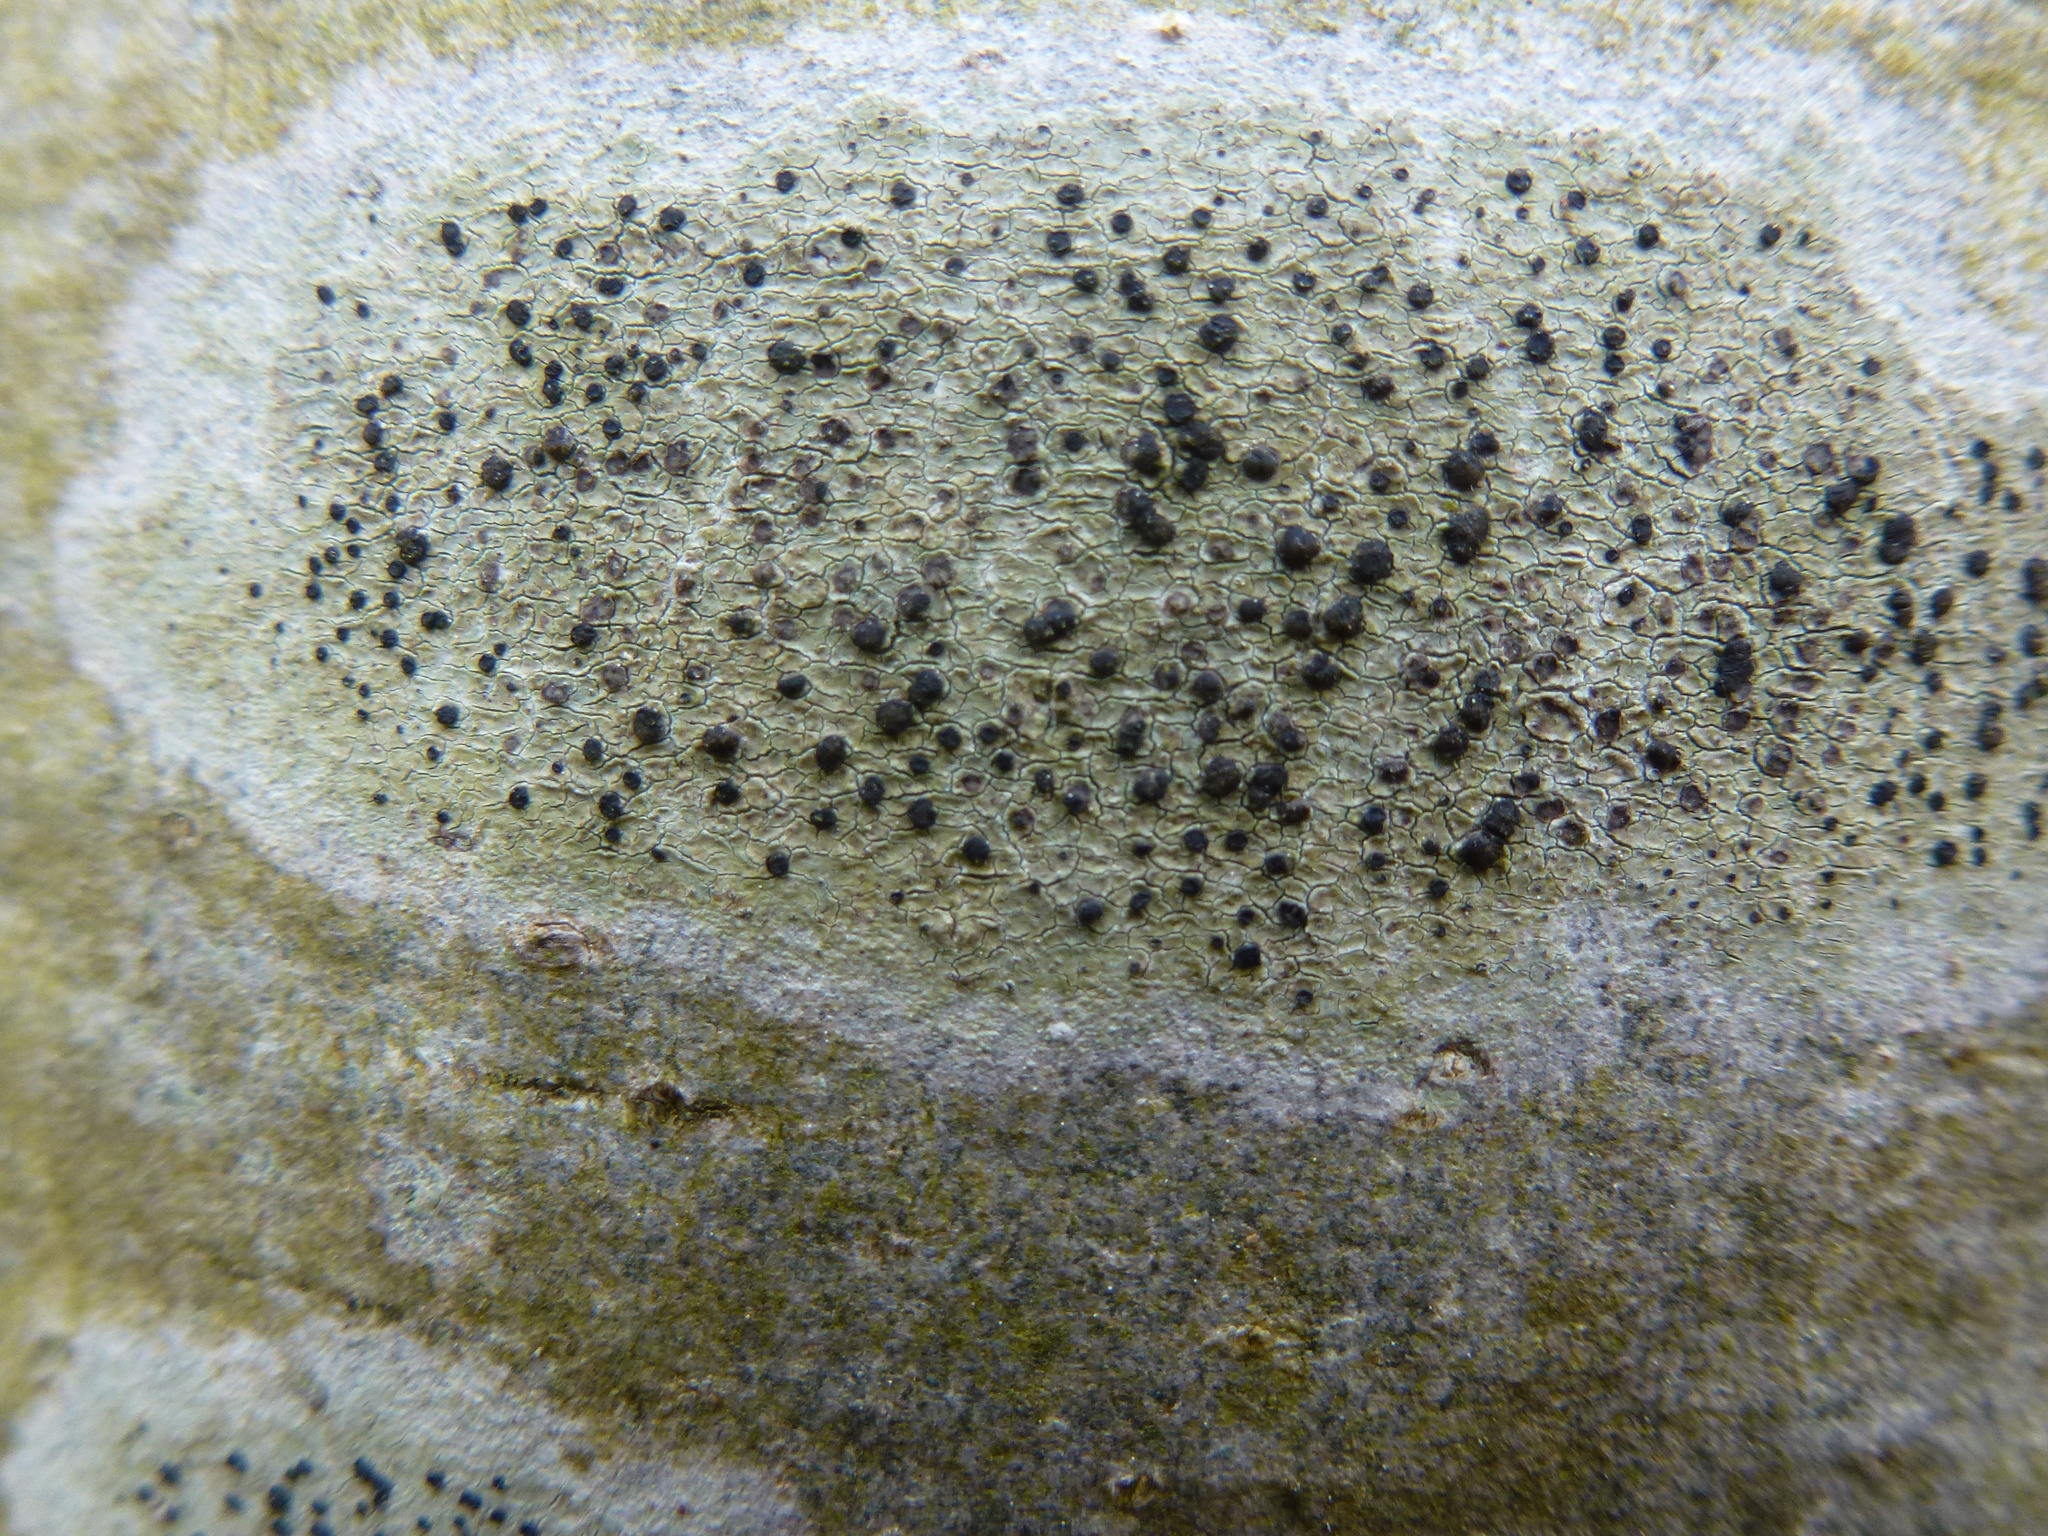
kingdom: Fungi
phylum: Ascomycota
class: Lecanoromycetes
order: Lecanorales
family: Lecanoraceae
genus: Lecidella
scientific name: Lecidella elaeochroma
